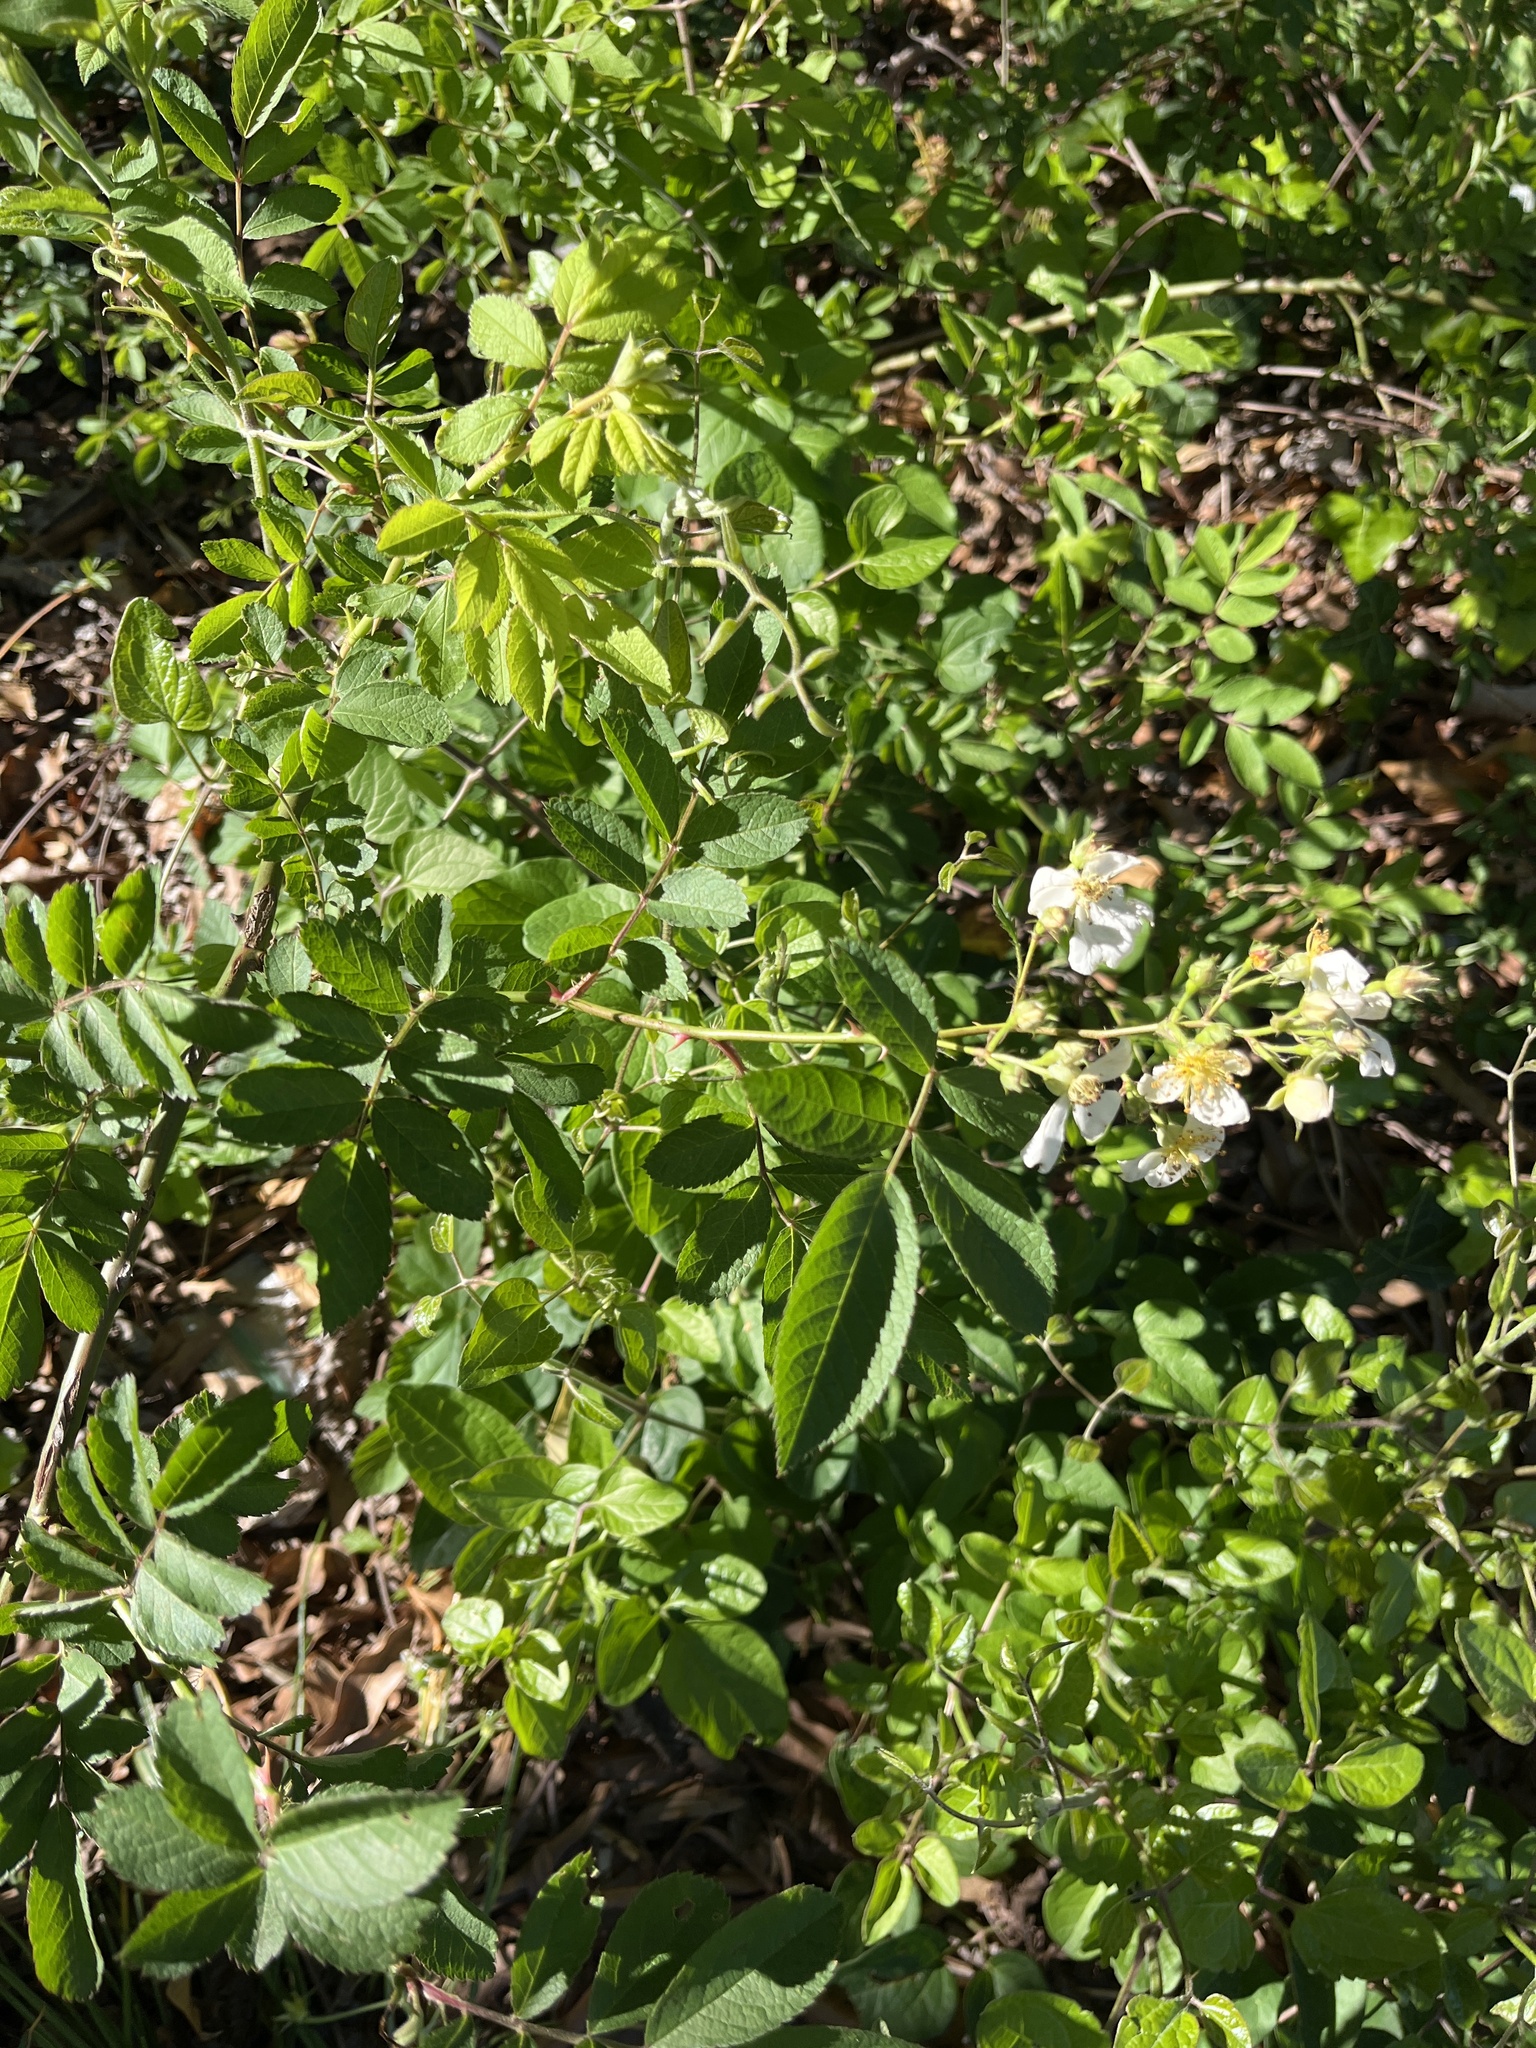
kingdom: Plantae
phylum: Tracheophyta
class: Magnoliopsida
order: Rosales
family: Rosaceae
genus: Rosa
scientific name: Rosa multiflora
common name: Multiflora rose
